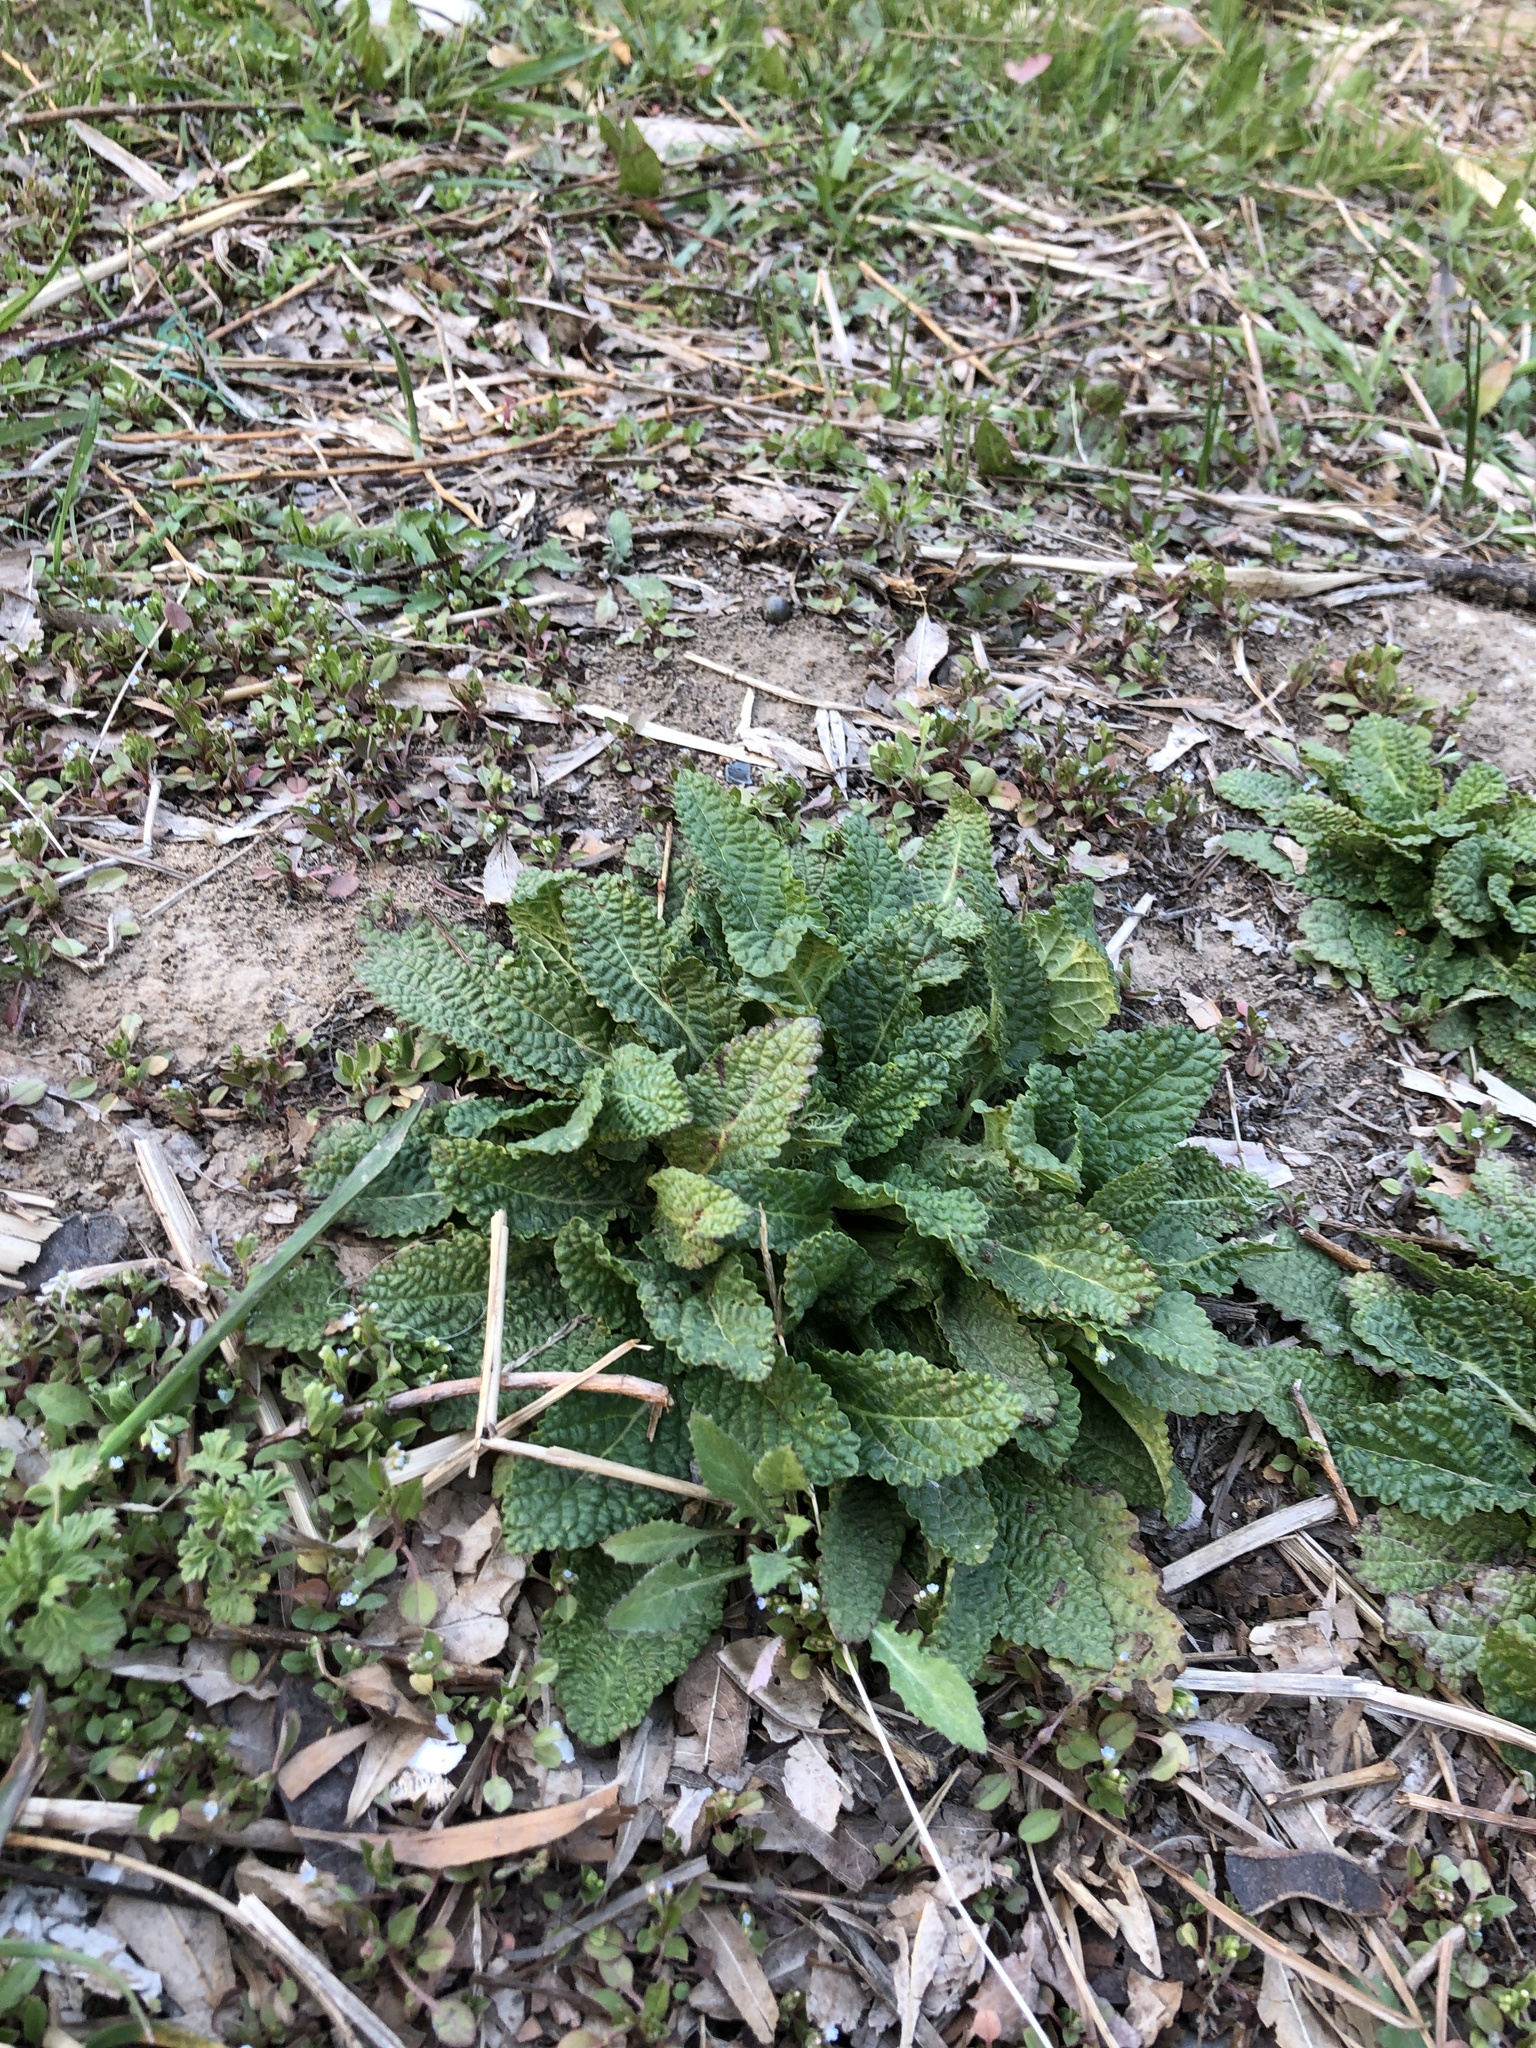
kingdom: Plantae
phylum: Tracheophyta
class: Magnoliopsida
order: Lamiales
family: Lamiaceae
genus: Salvia
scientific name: Salvia plebeia
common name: Australian sage
